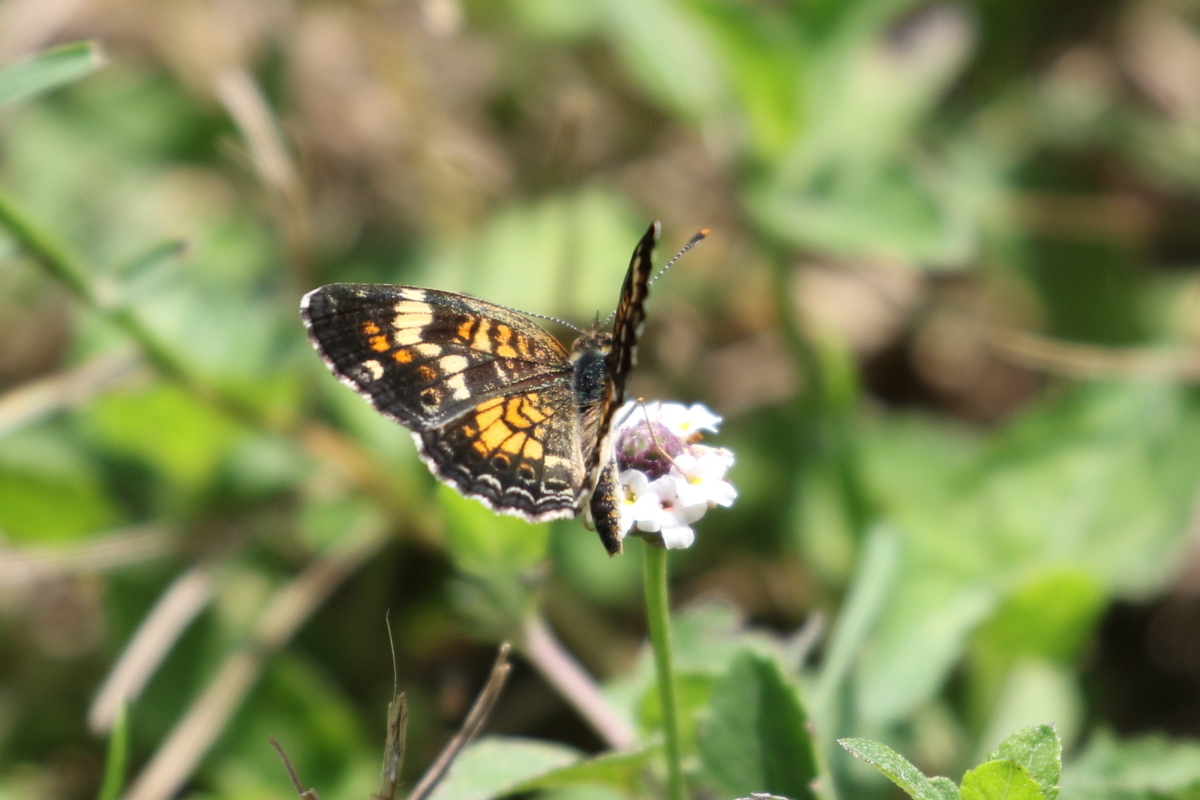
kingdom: Animalia
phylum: Arthropoda
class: Insecta
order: Lepidoptera
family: Nymphalidae
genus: Phyciodes
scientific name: Phyciodes phaon
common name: Phaon crescent
